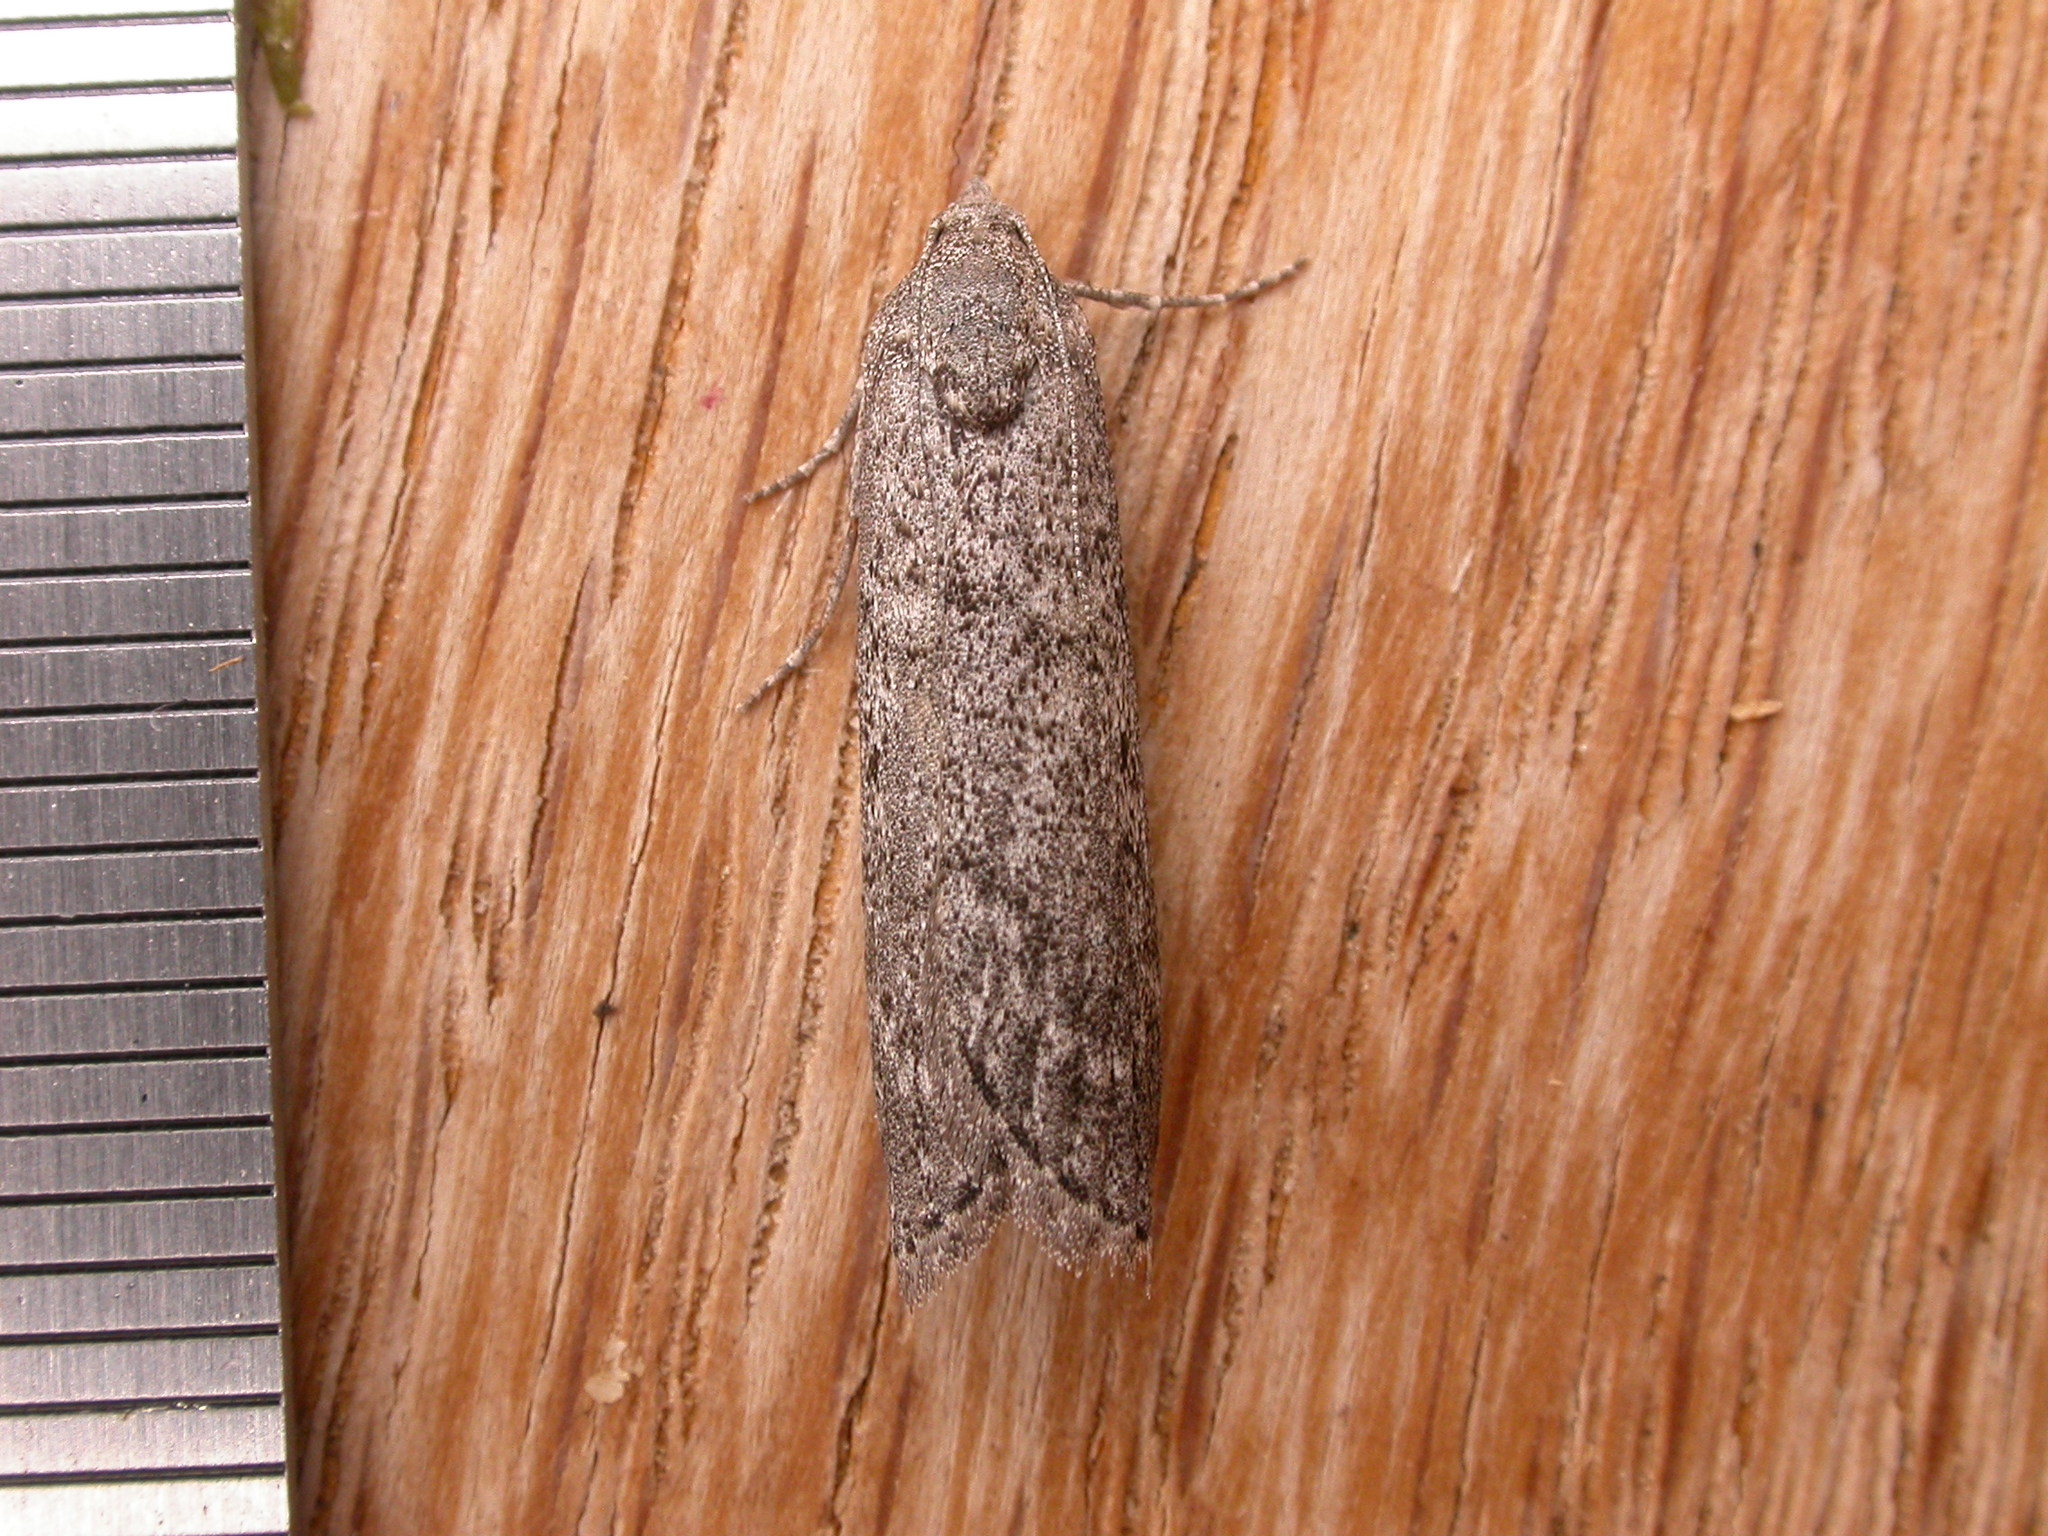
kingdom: Animalia
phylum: Arthropoda
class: Insecta
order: Lepidoptera
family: Pyralidae
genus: Heteromicta
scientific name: Heteromicta pachytera
